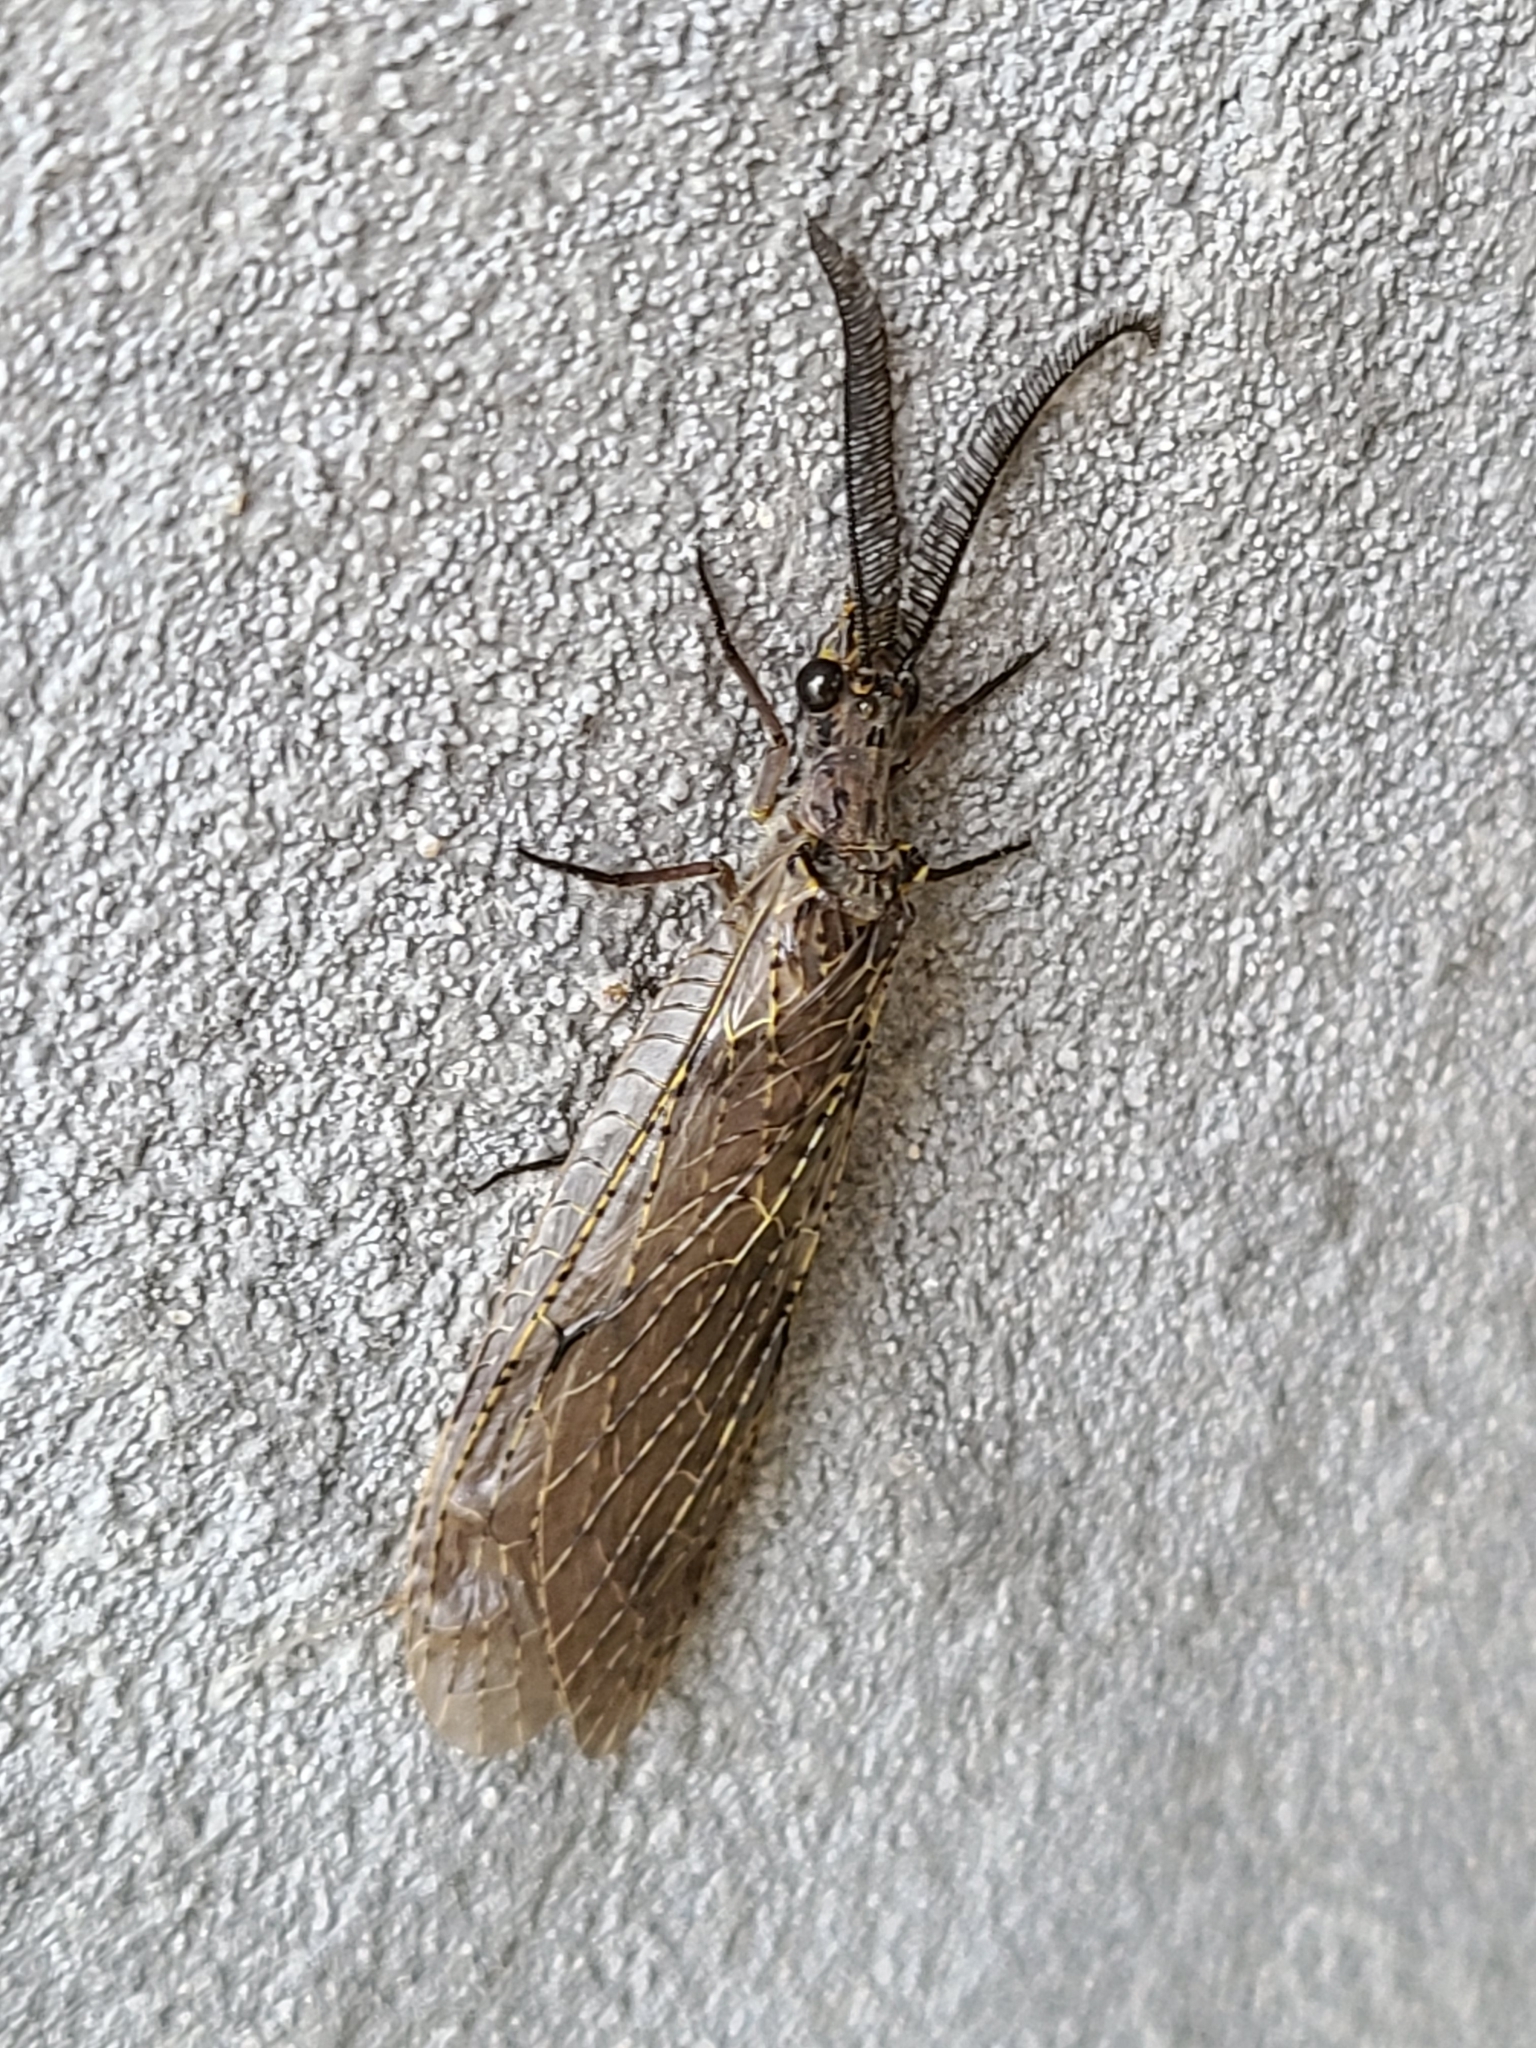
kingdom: Animalia
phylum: Arthropoda
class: Insecta
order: Megaloptera
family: Corydalidae
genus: Chauliodes
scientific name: Chauliodes rastricornis
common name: Spring fishfly
